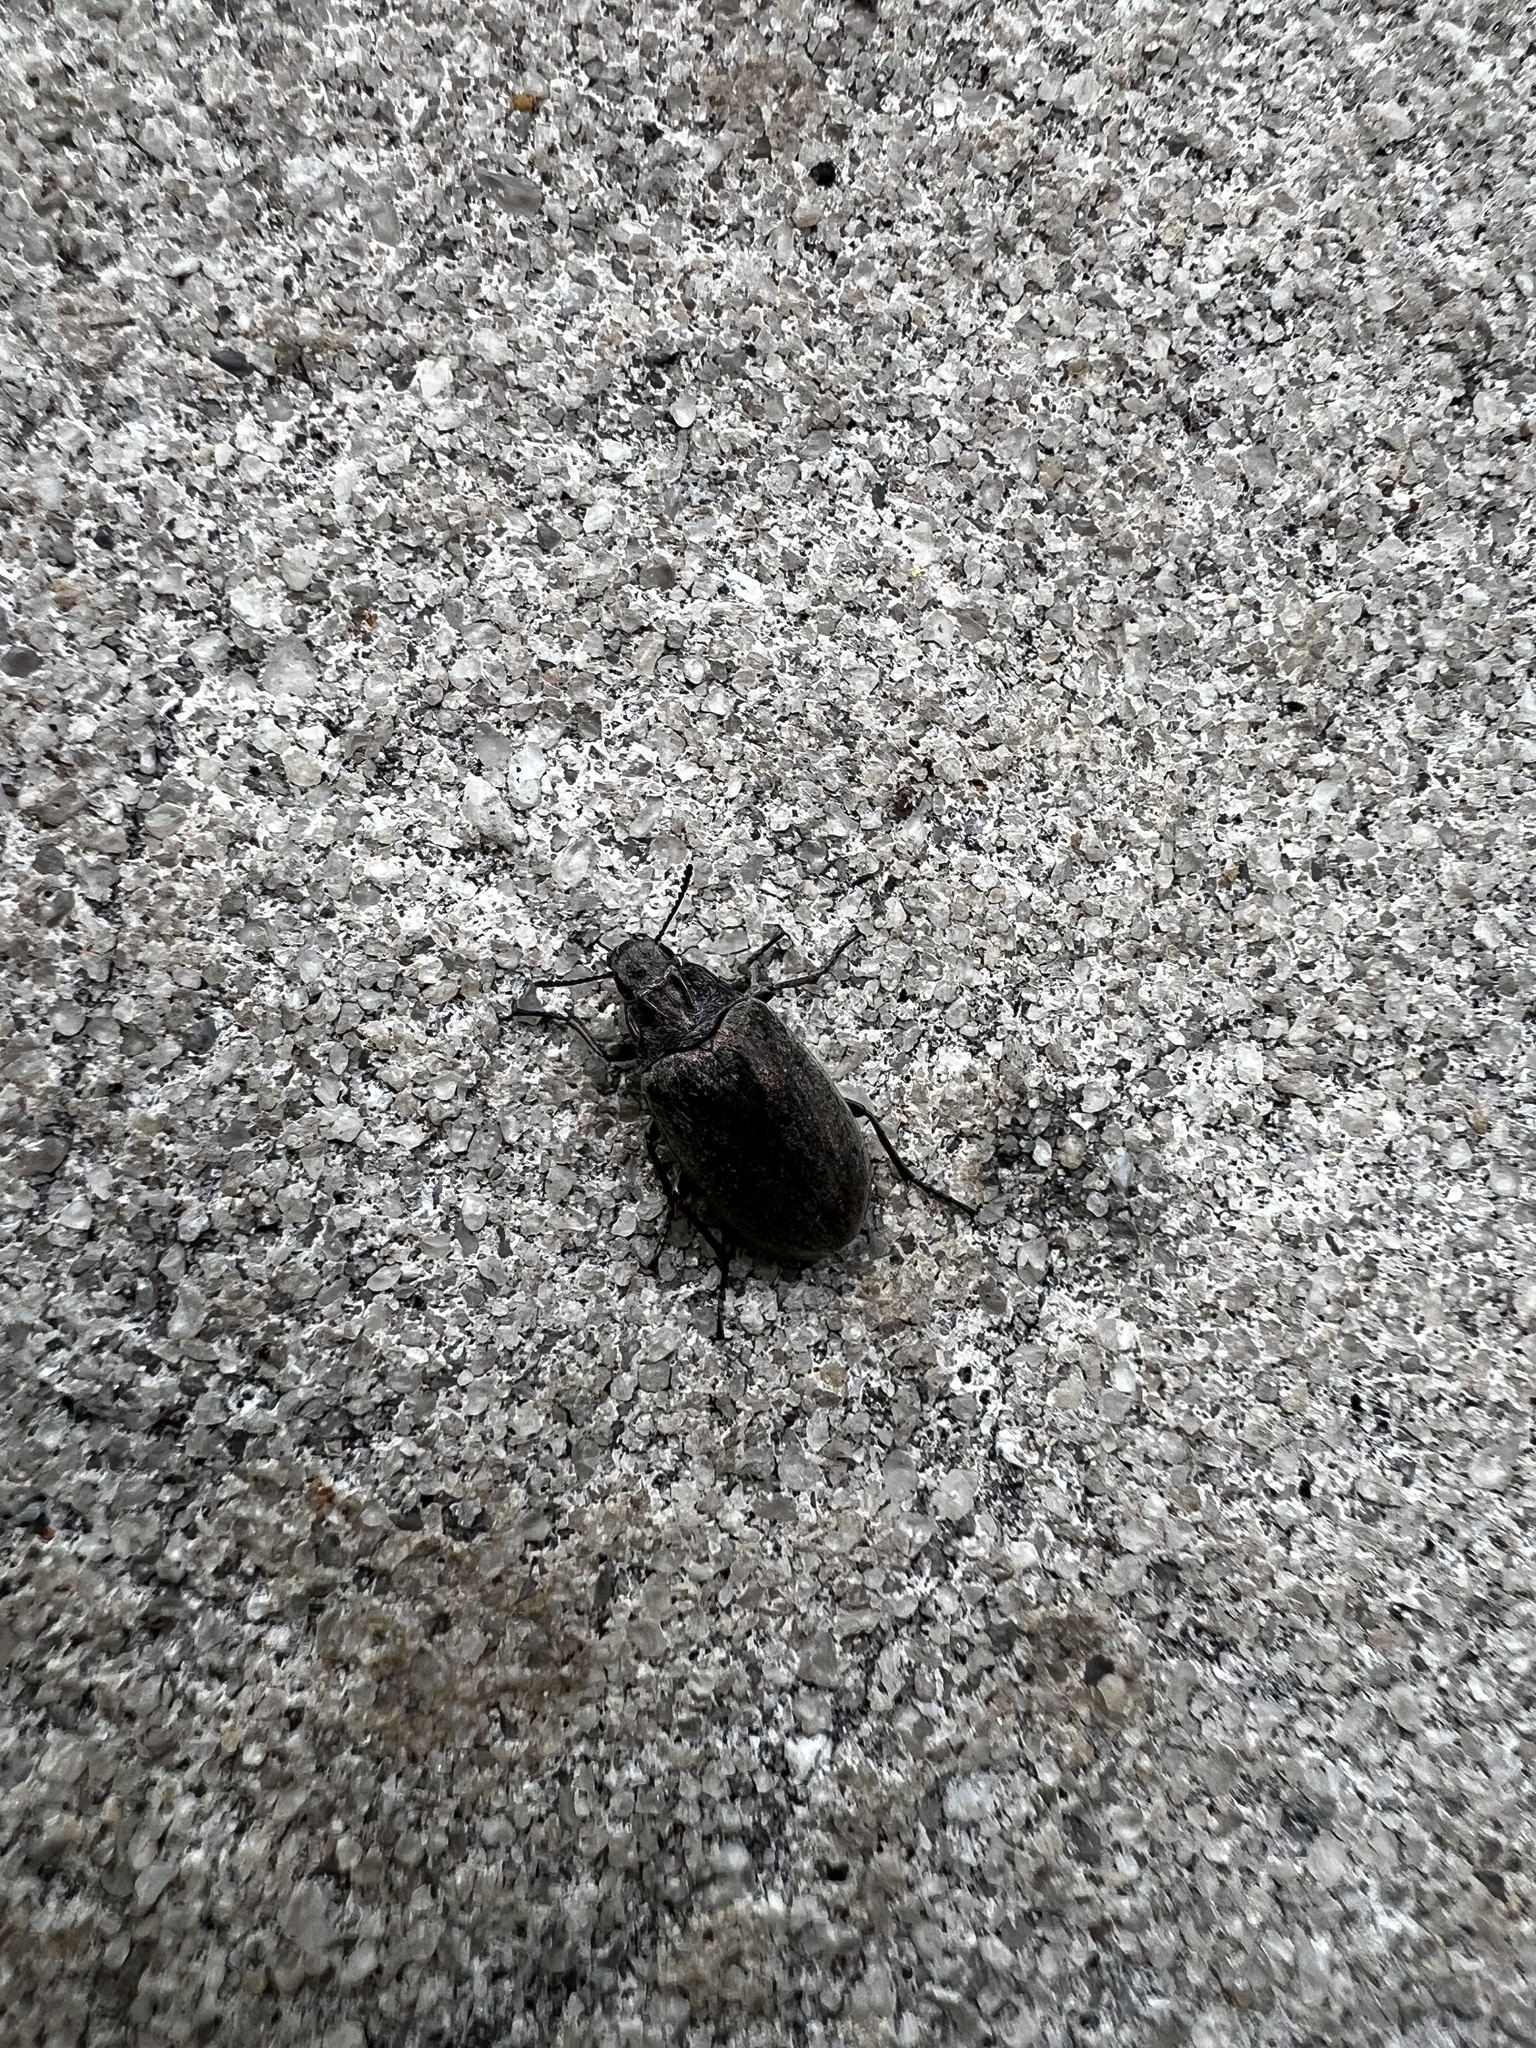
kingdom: Animalia
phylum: Arthropoda
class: Insecta
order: Coleoptera
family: Tenebrionidae
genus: Bothrotes
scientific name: Bothrotes canaliculatus
